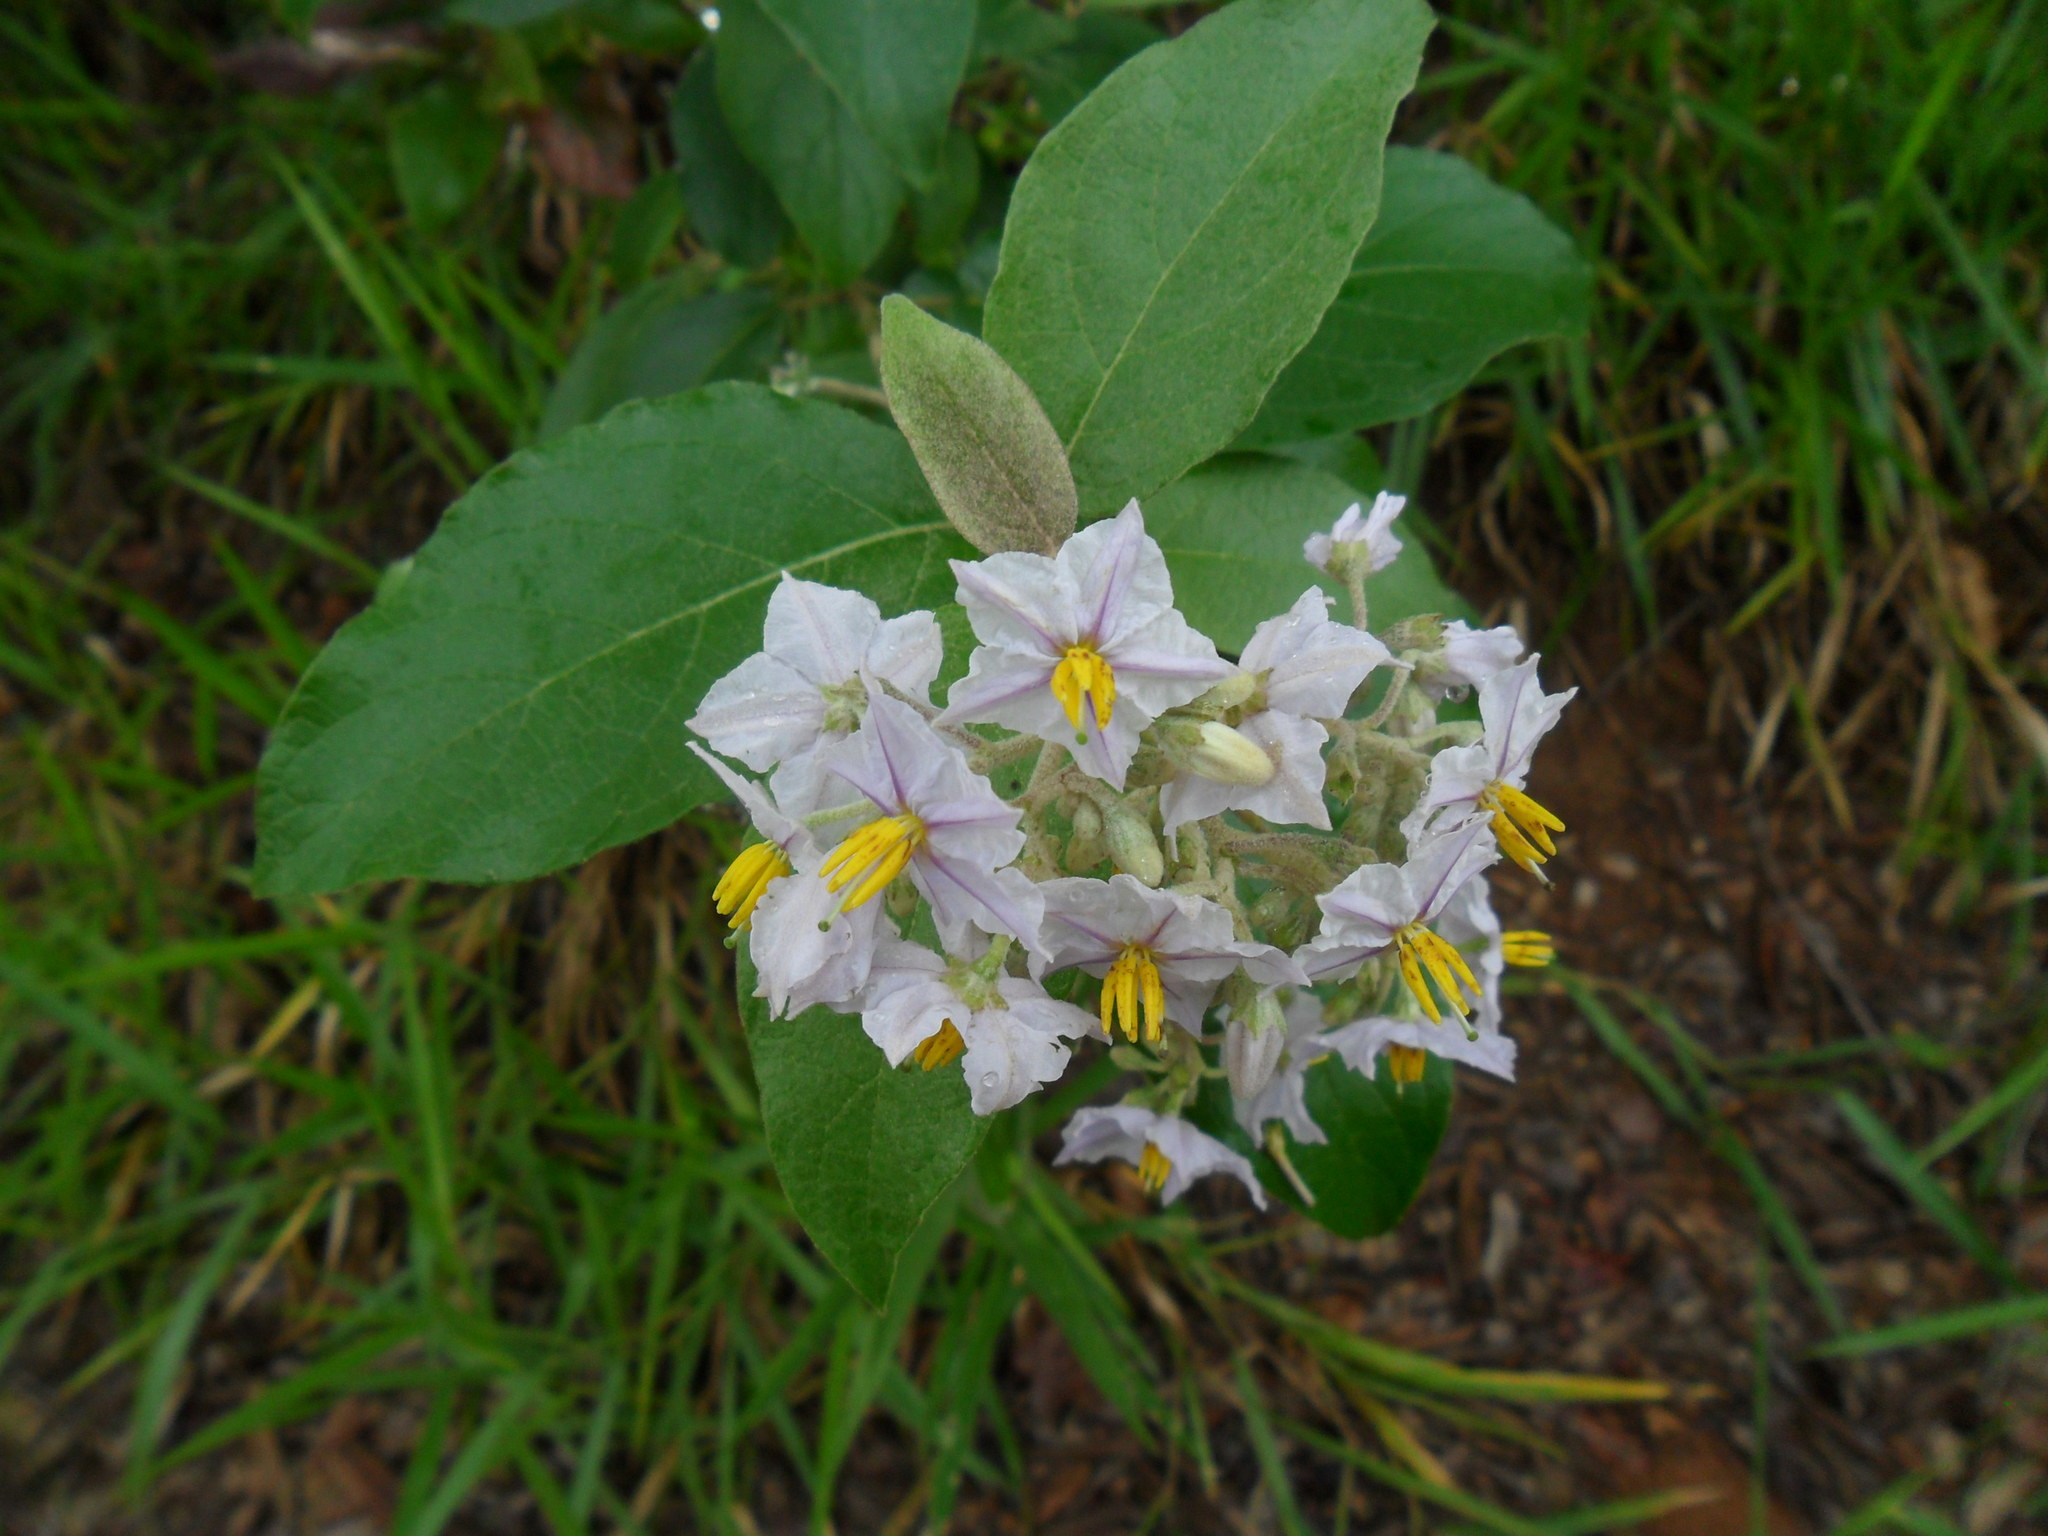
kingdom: Plantae
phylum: Tracheophyta
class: Magnoliopsida
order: Solanales
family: Solanaceae
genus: Solanum
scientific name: Solanum paniculatum
